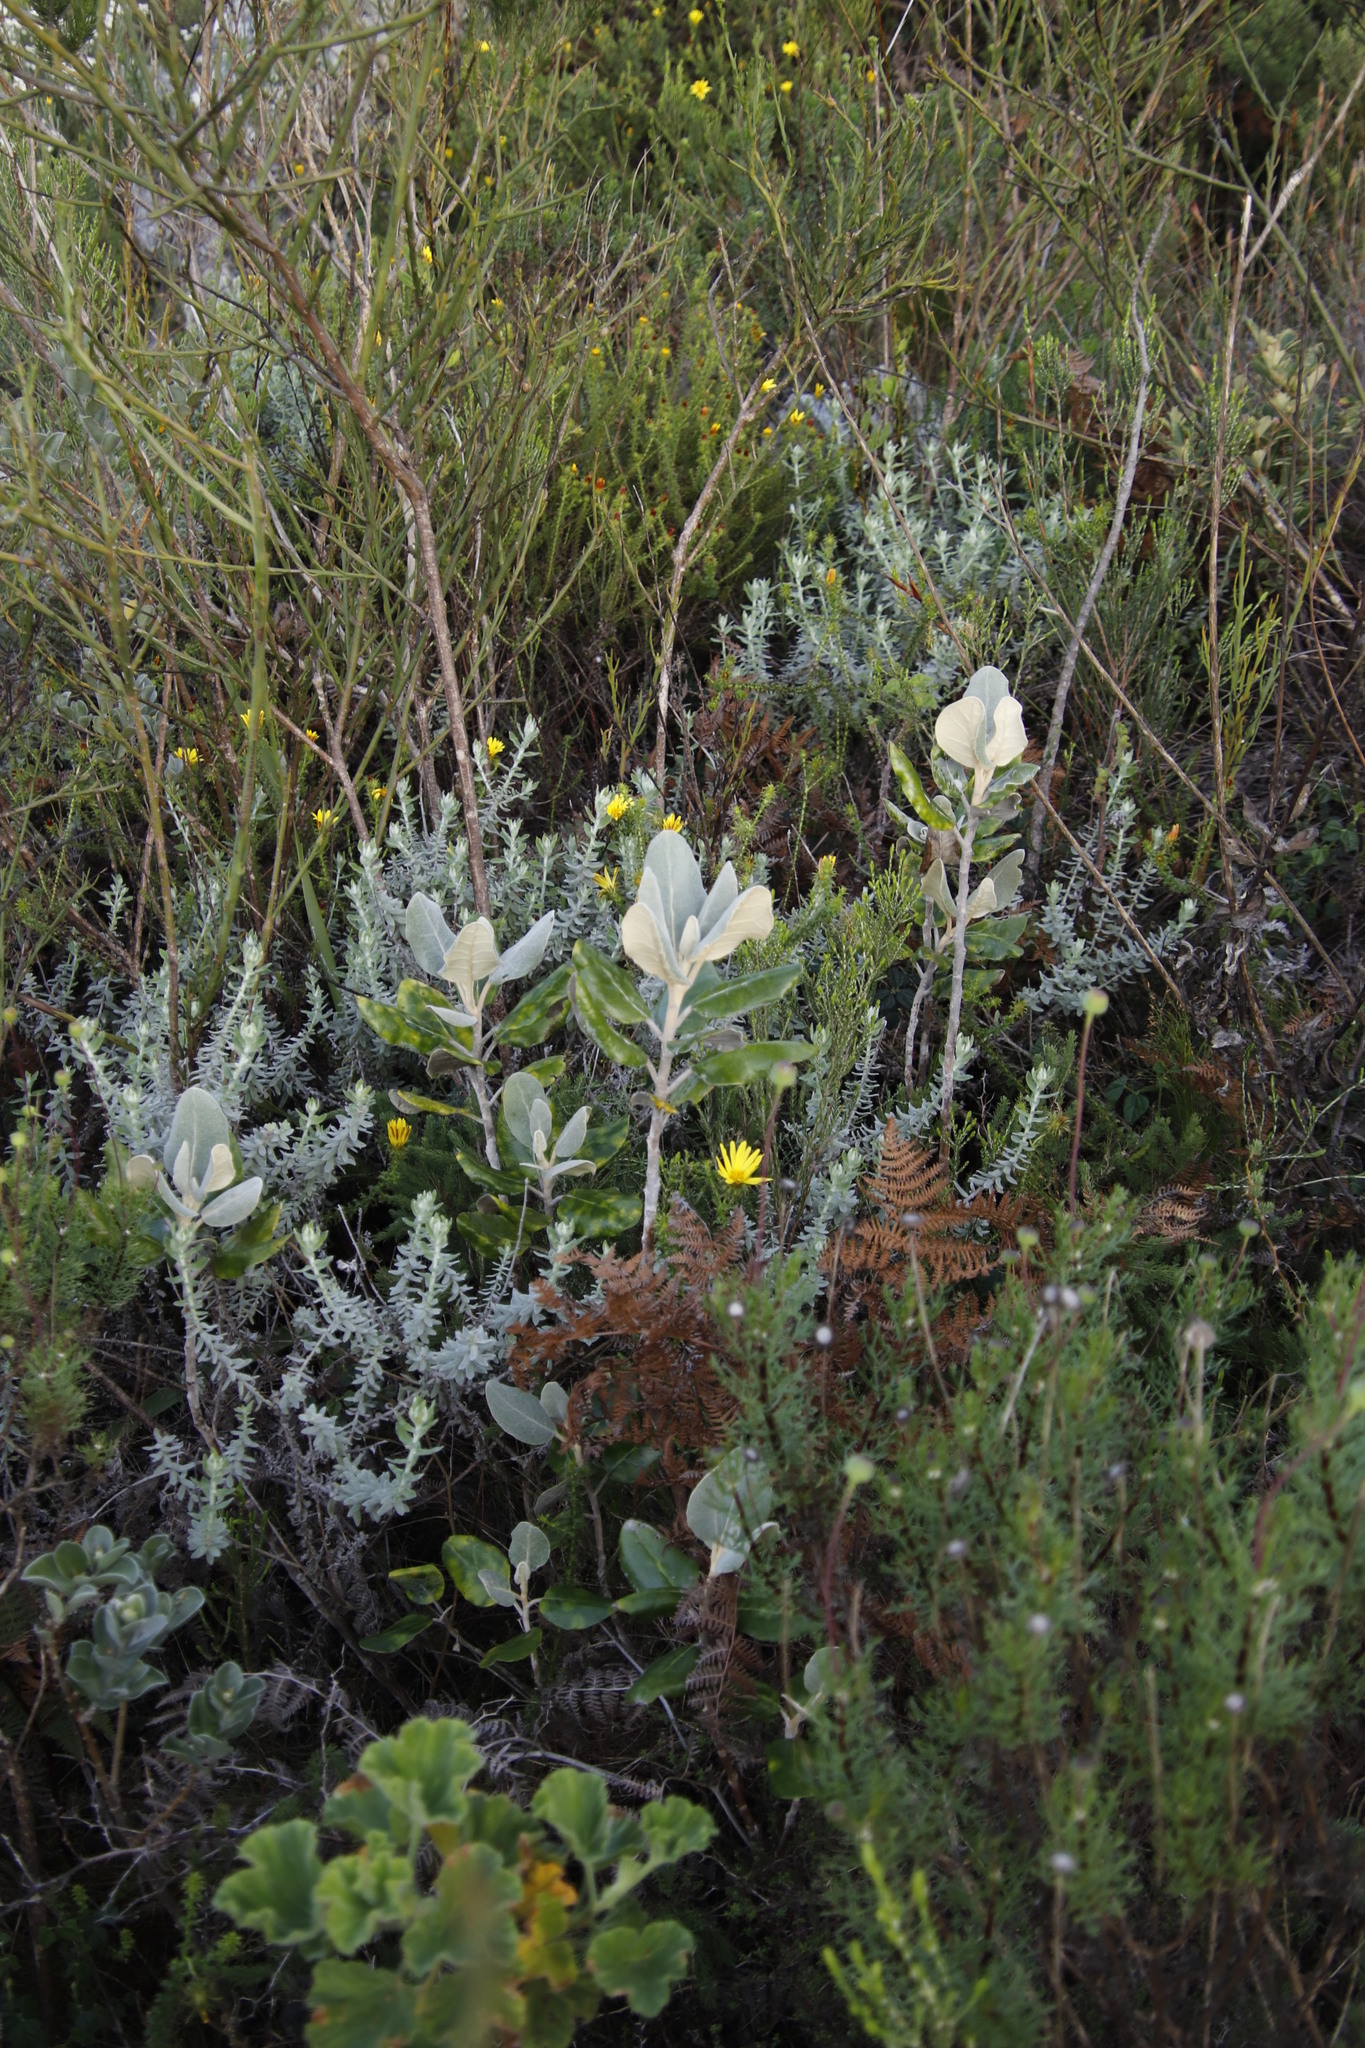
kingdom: Plantae
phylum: Tracheophyta
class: Magnoliopsida
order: Asterales
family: Asteraceae
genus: Capelio
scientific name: Capelio tabularis
